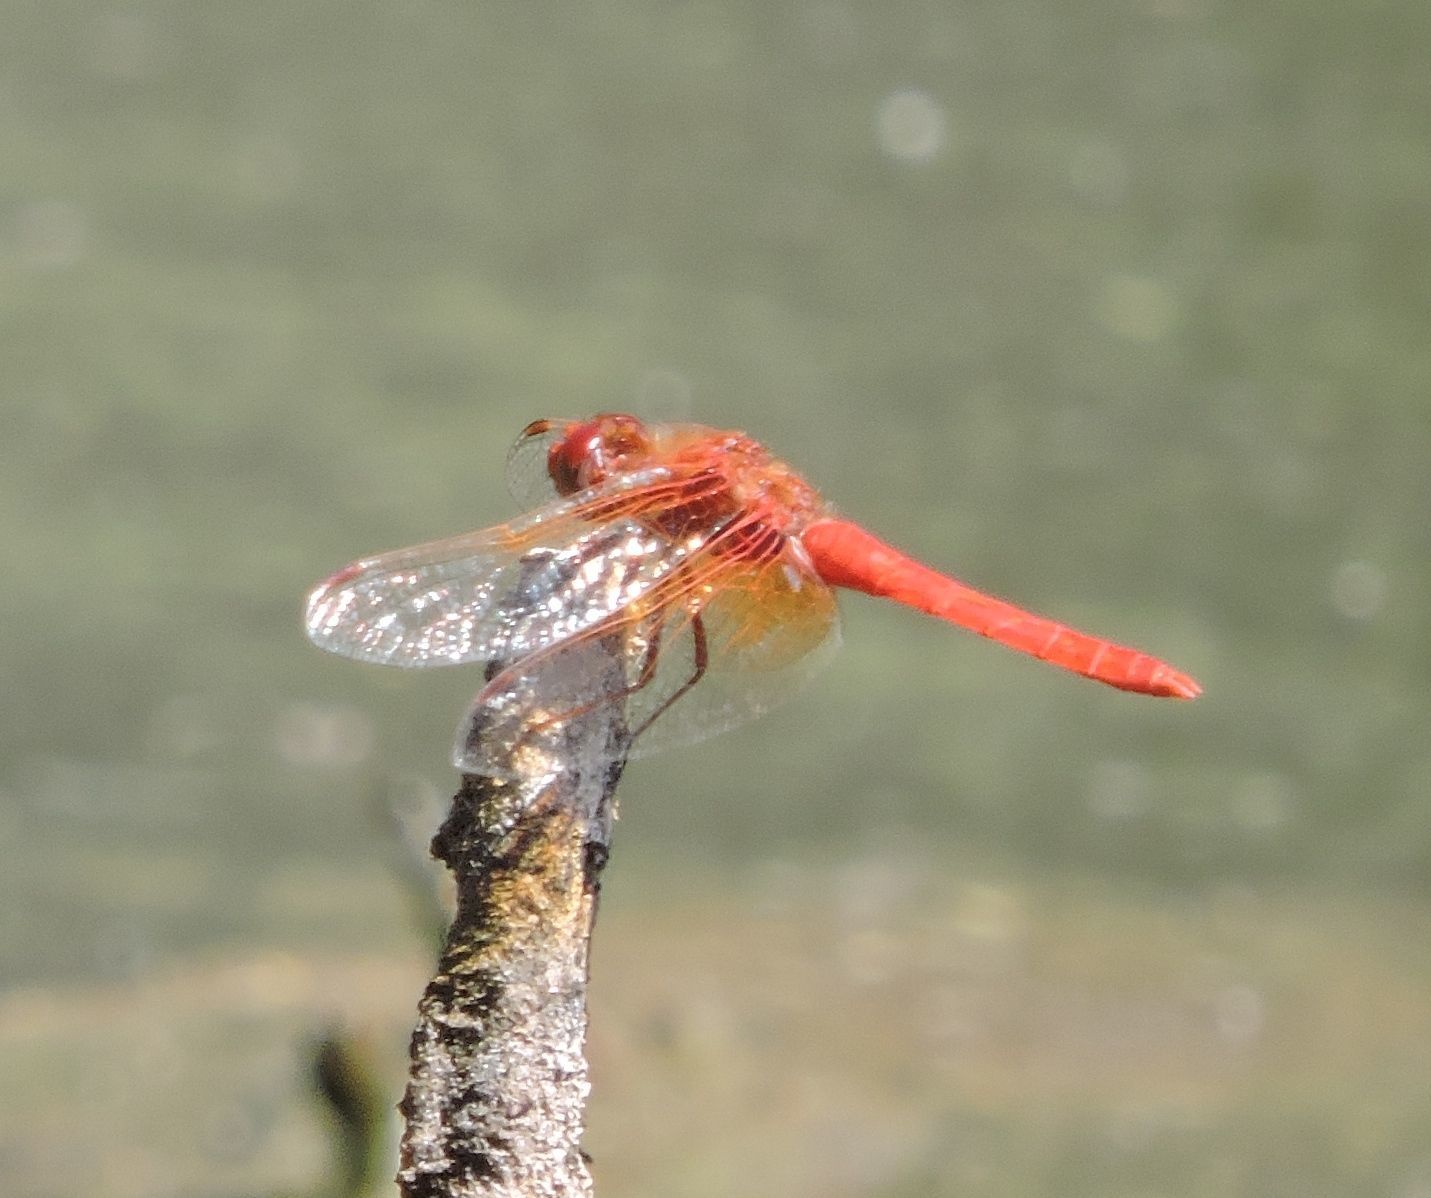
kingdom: Animalia
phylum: Arthropoda
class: Insecta
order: Odonata
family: Libellulidae
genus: Sympetrum
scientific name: Sympetrum illotum
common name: Cardinal meadowhawk
